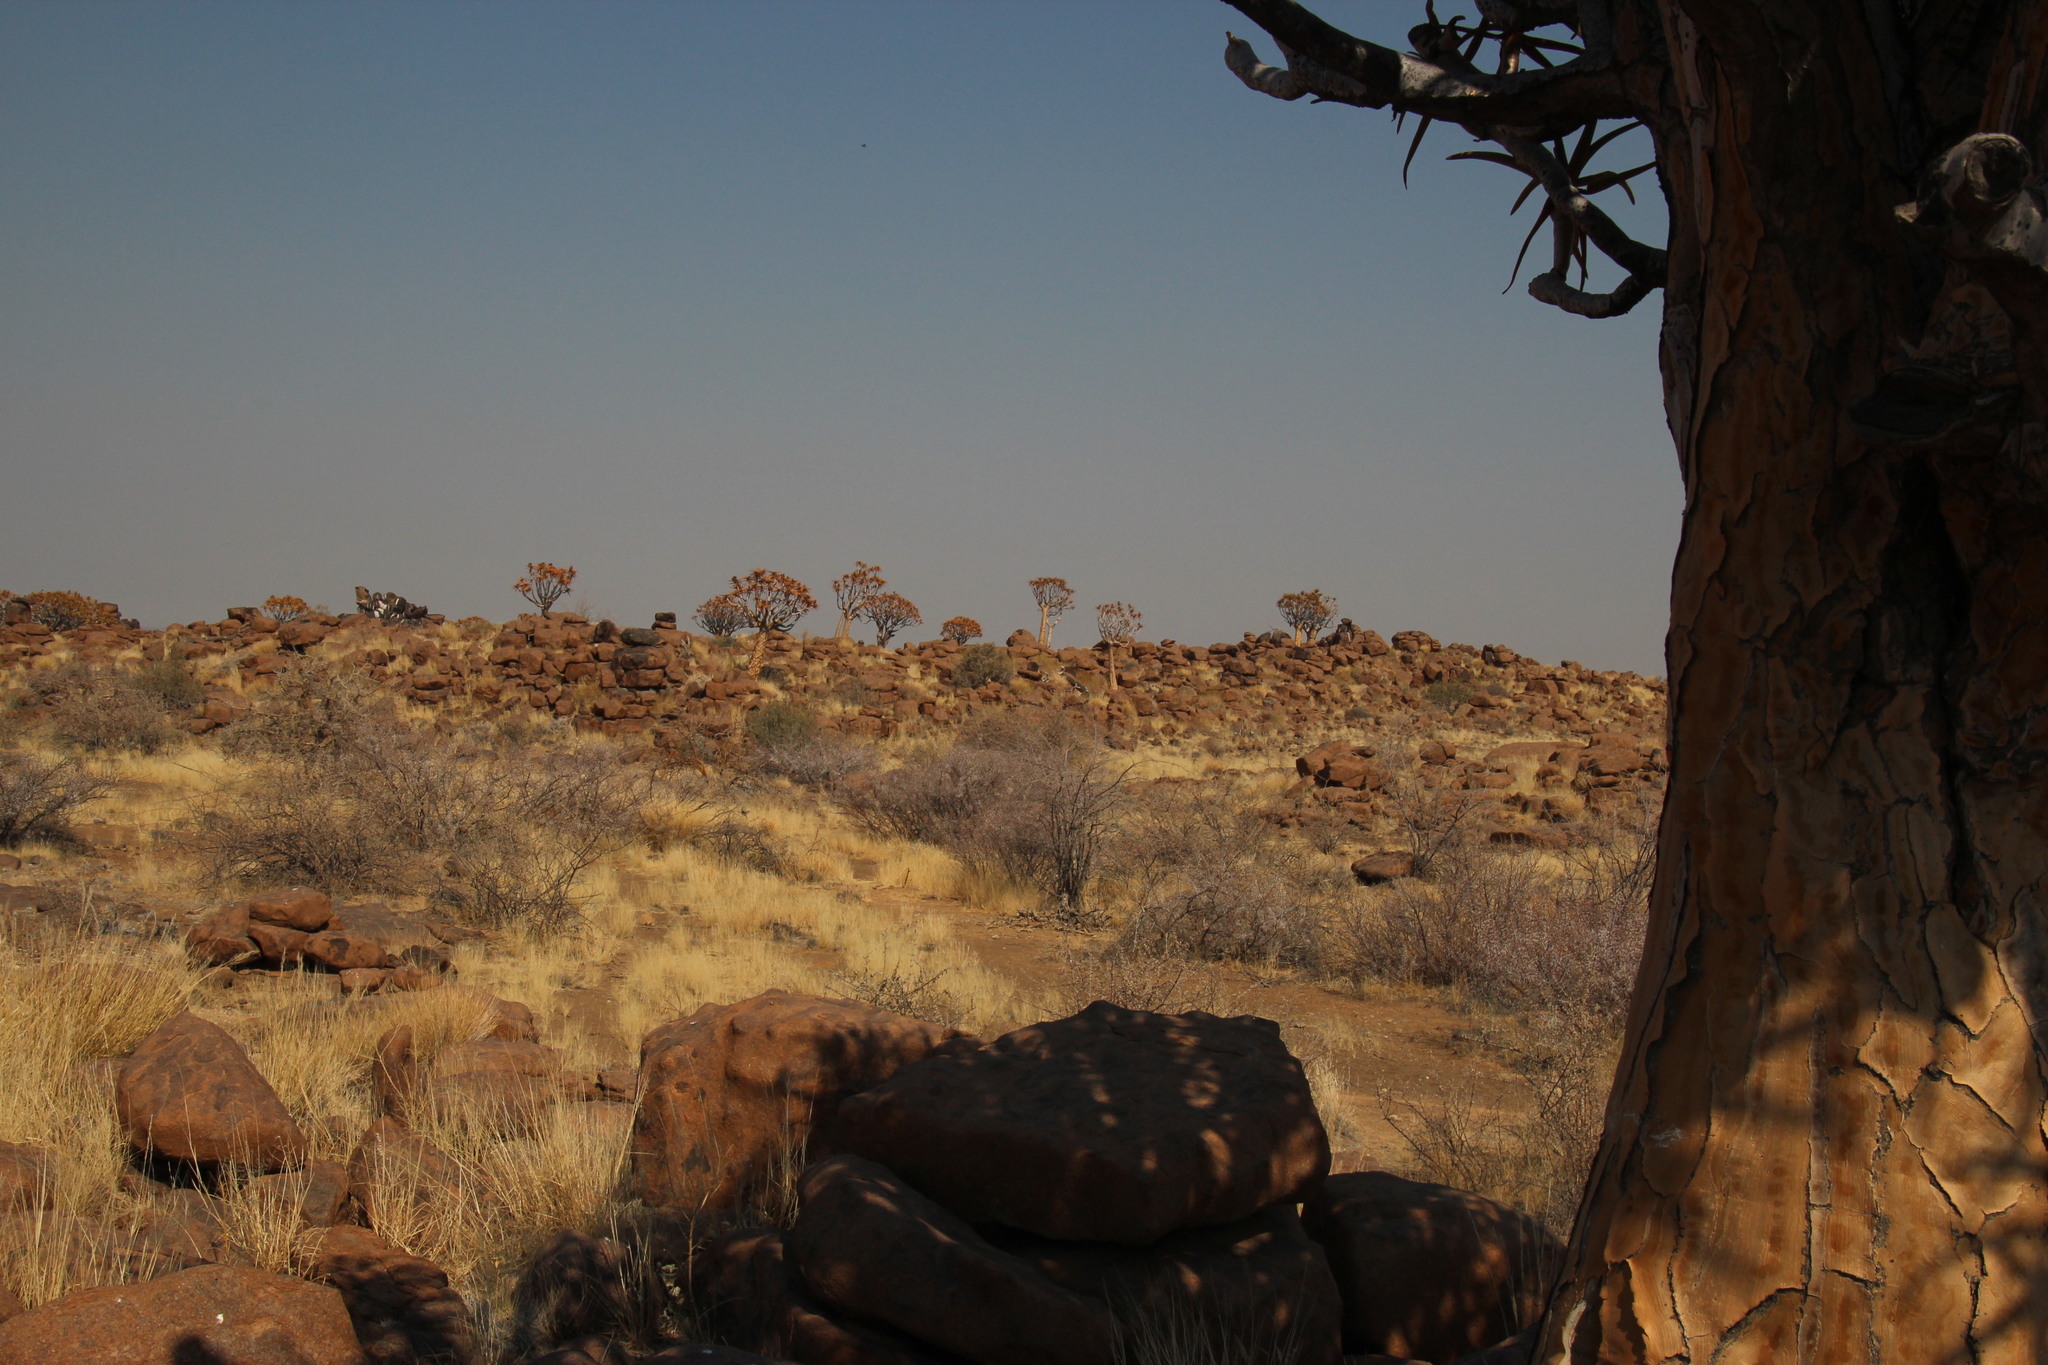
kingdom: Plantae
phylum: Tracheophyta
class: Liliopsida
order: Asparagales
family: Asphodelaceae
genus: Aloidendron
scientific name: Aloidendron dichotomum
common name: Quiver tree
